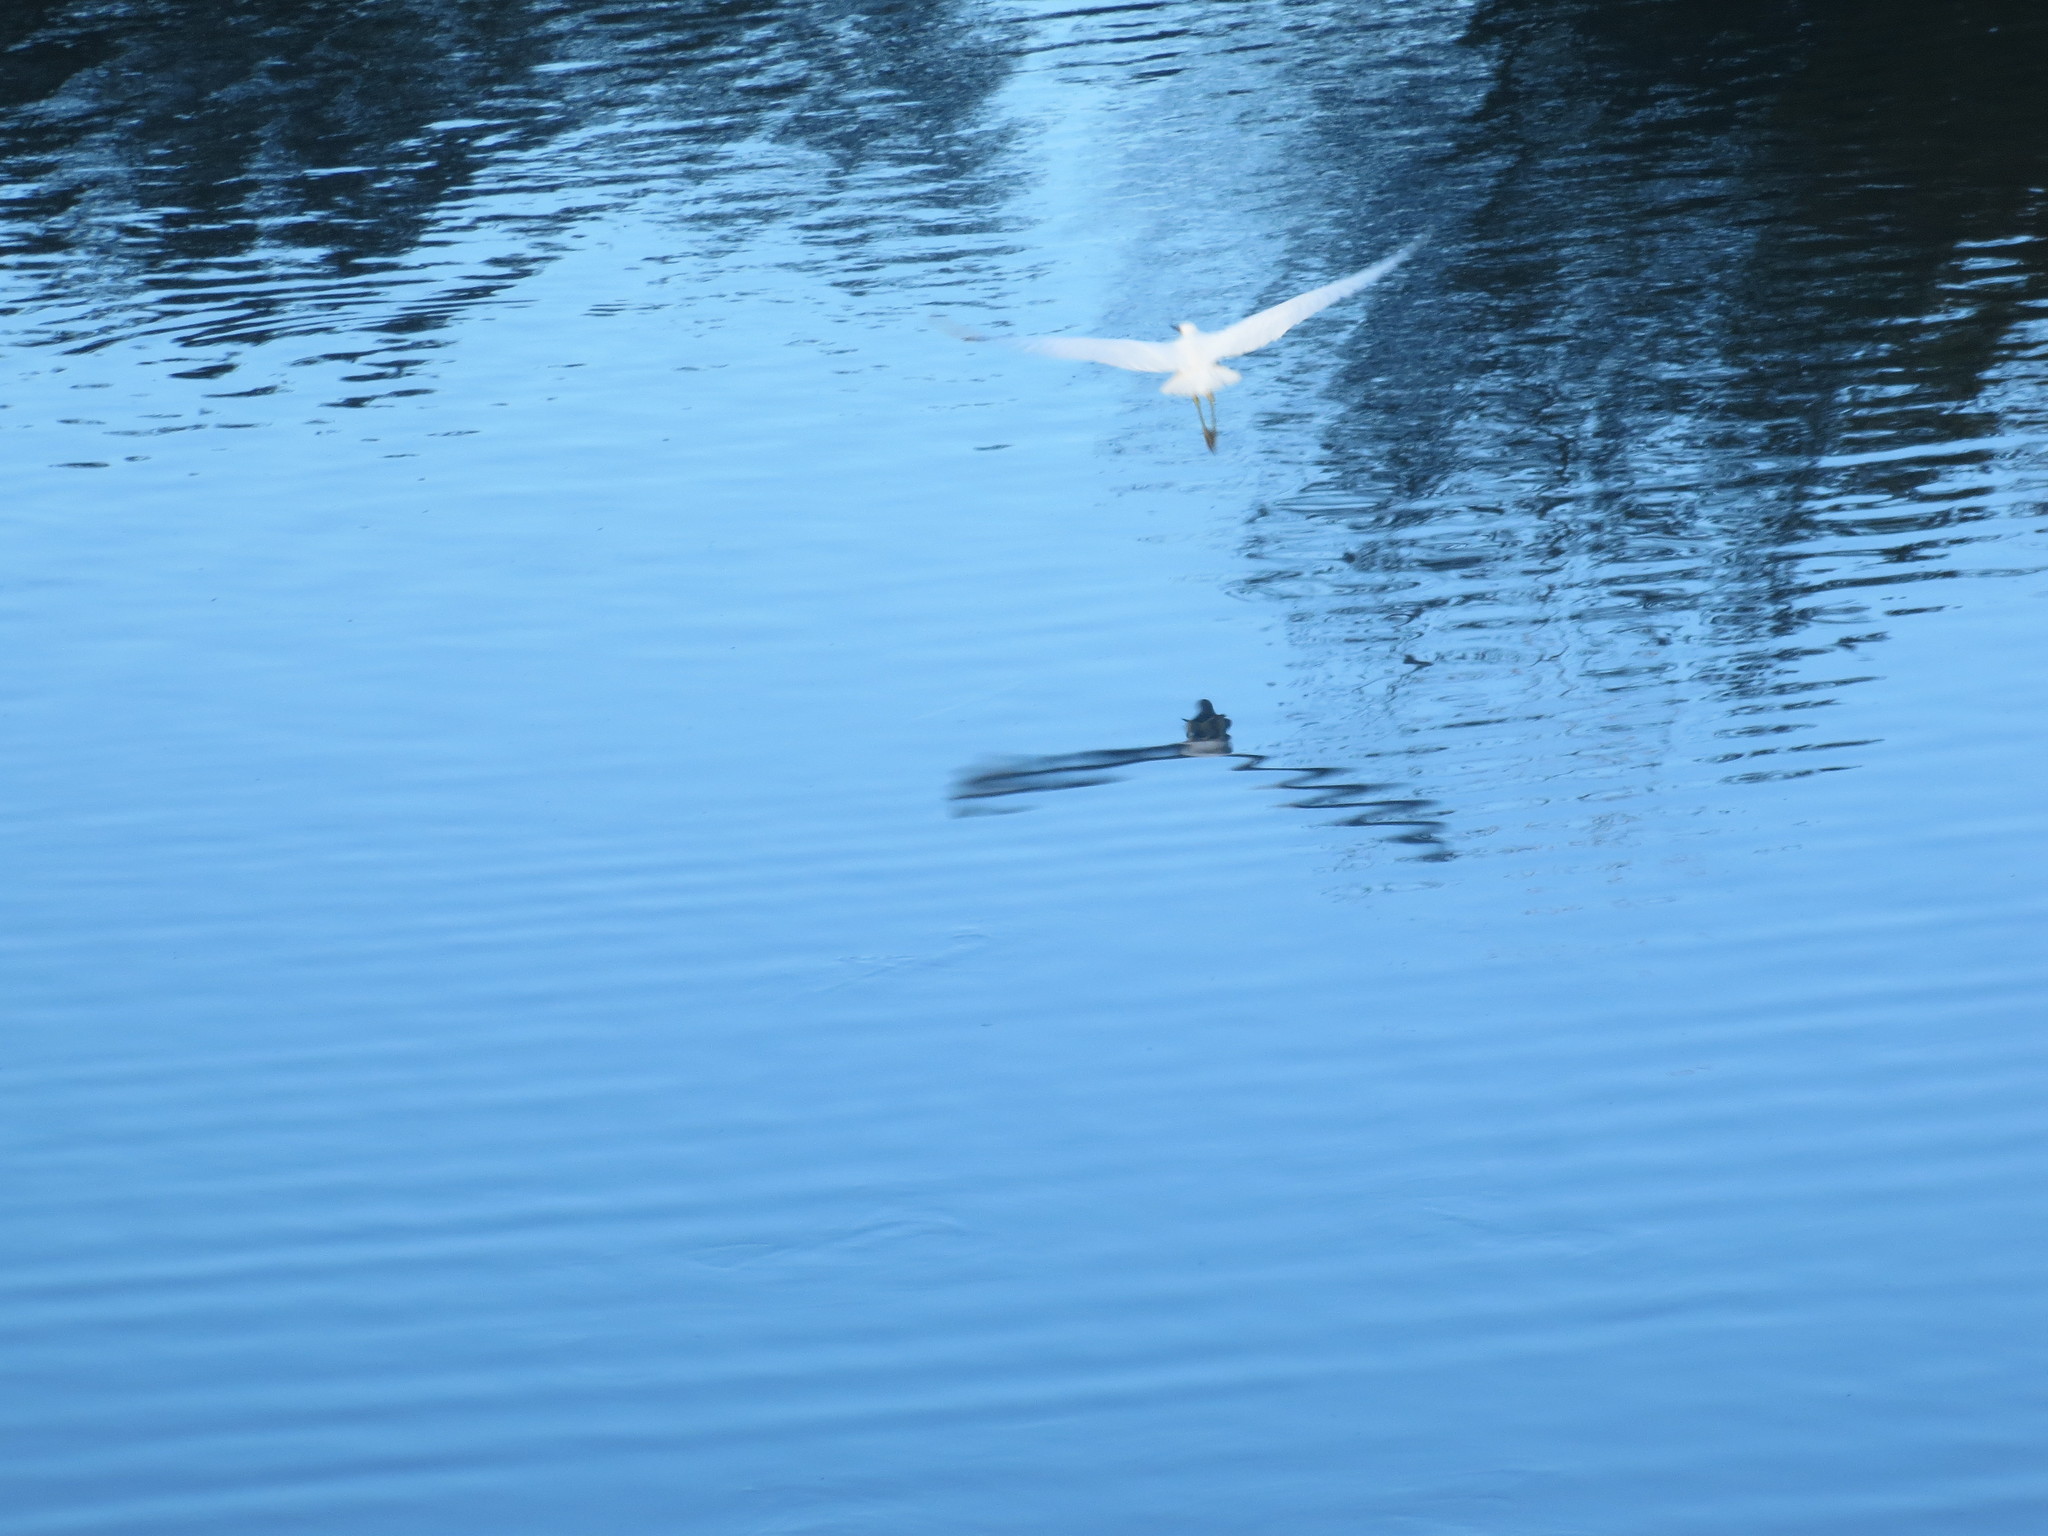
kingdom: Animalia
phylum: Chordata
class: Aves
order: Pelecaniformes
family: Ardeidae
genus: Egretta
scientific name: Egretta thula
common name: Snowy egret
